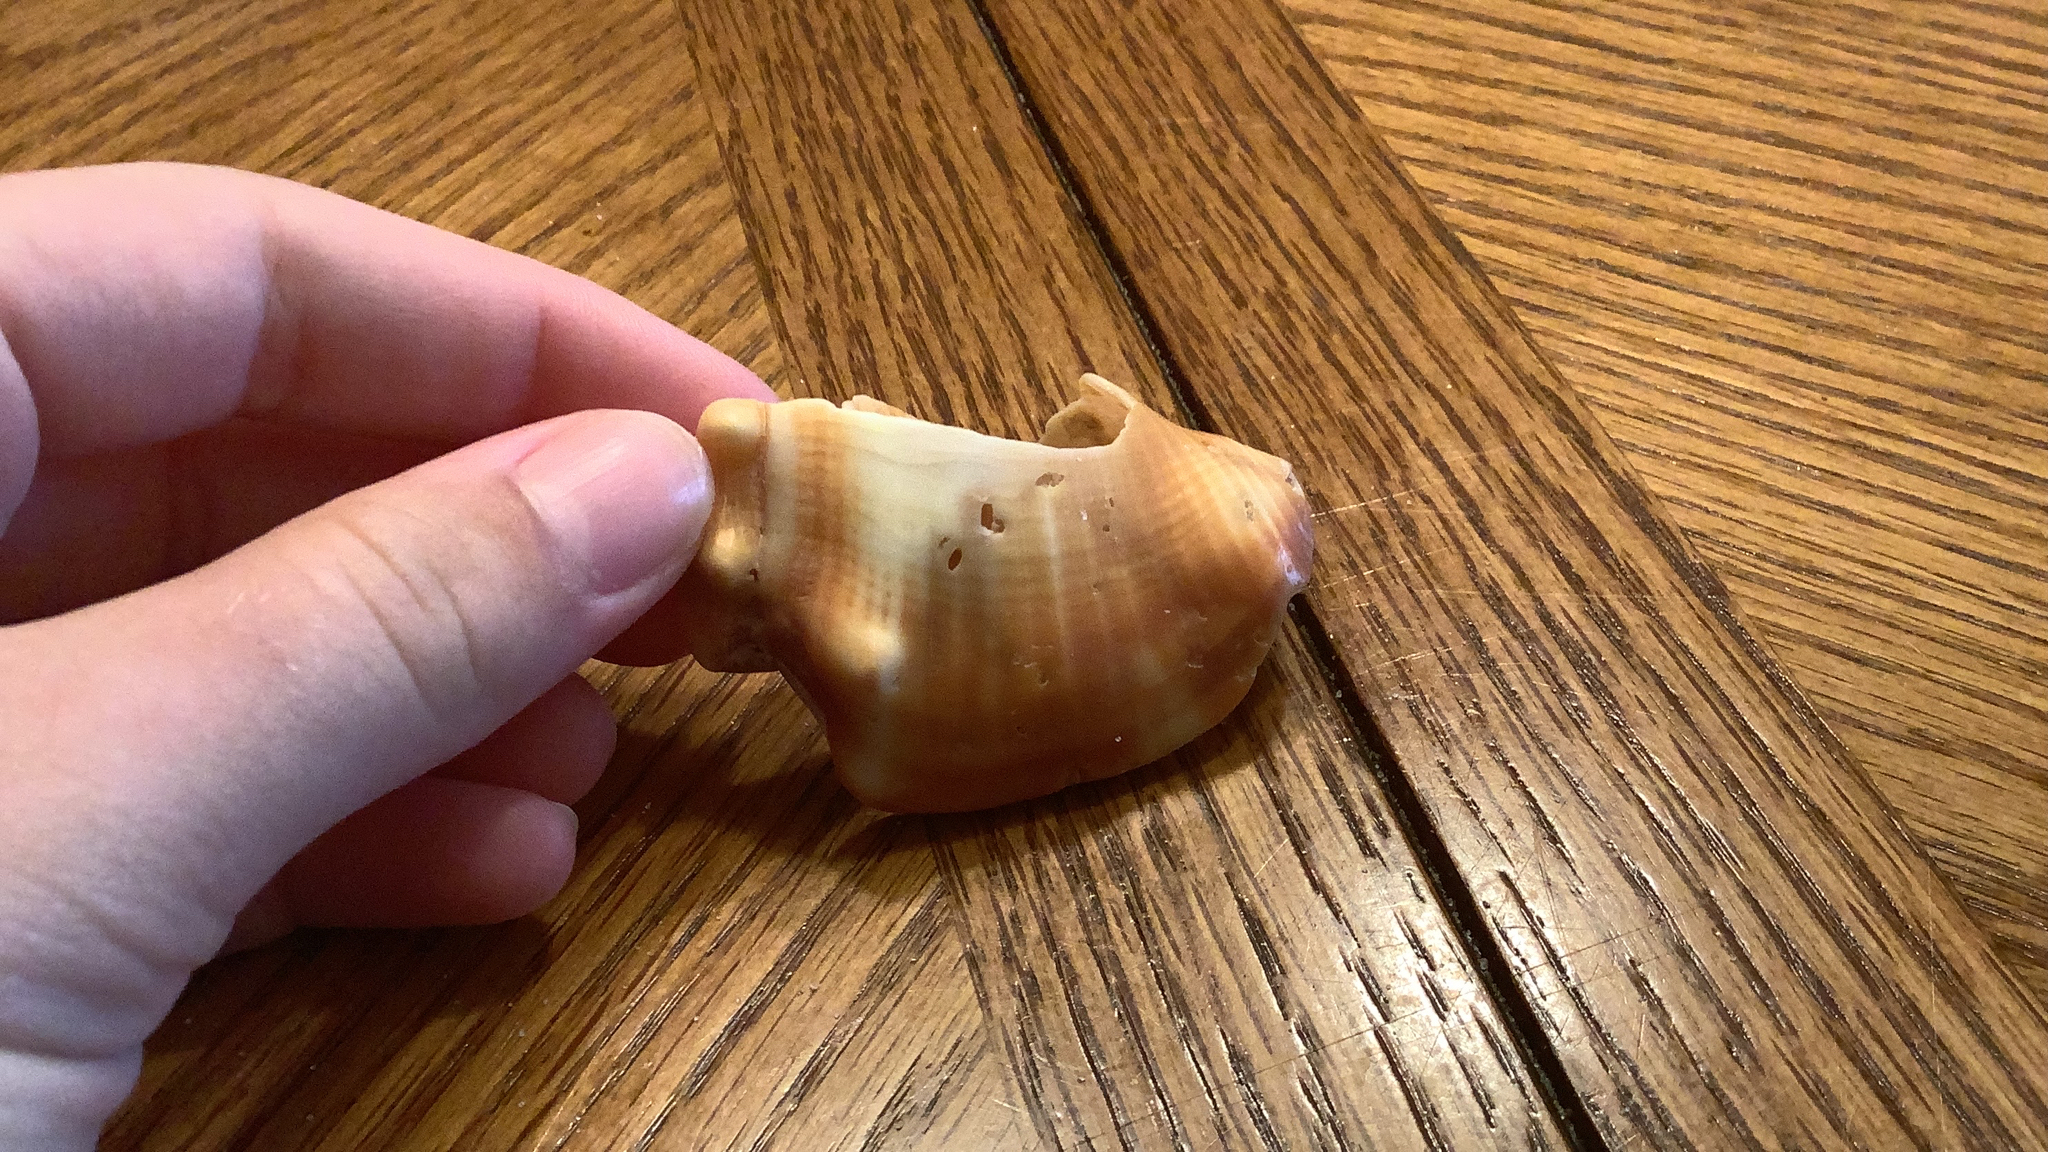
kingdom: Animalia
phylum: Mollusca
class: Gastropoda
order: Littorinimorpha
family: Strombidae
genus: Strombus
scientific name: Strombus alatus
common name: Florida fighting conch
